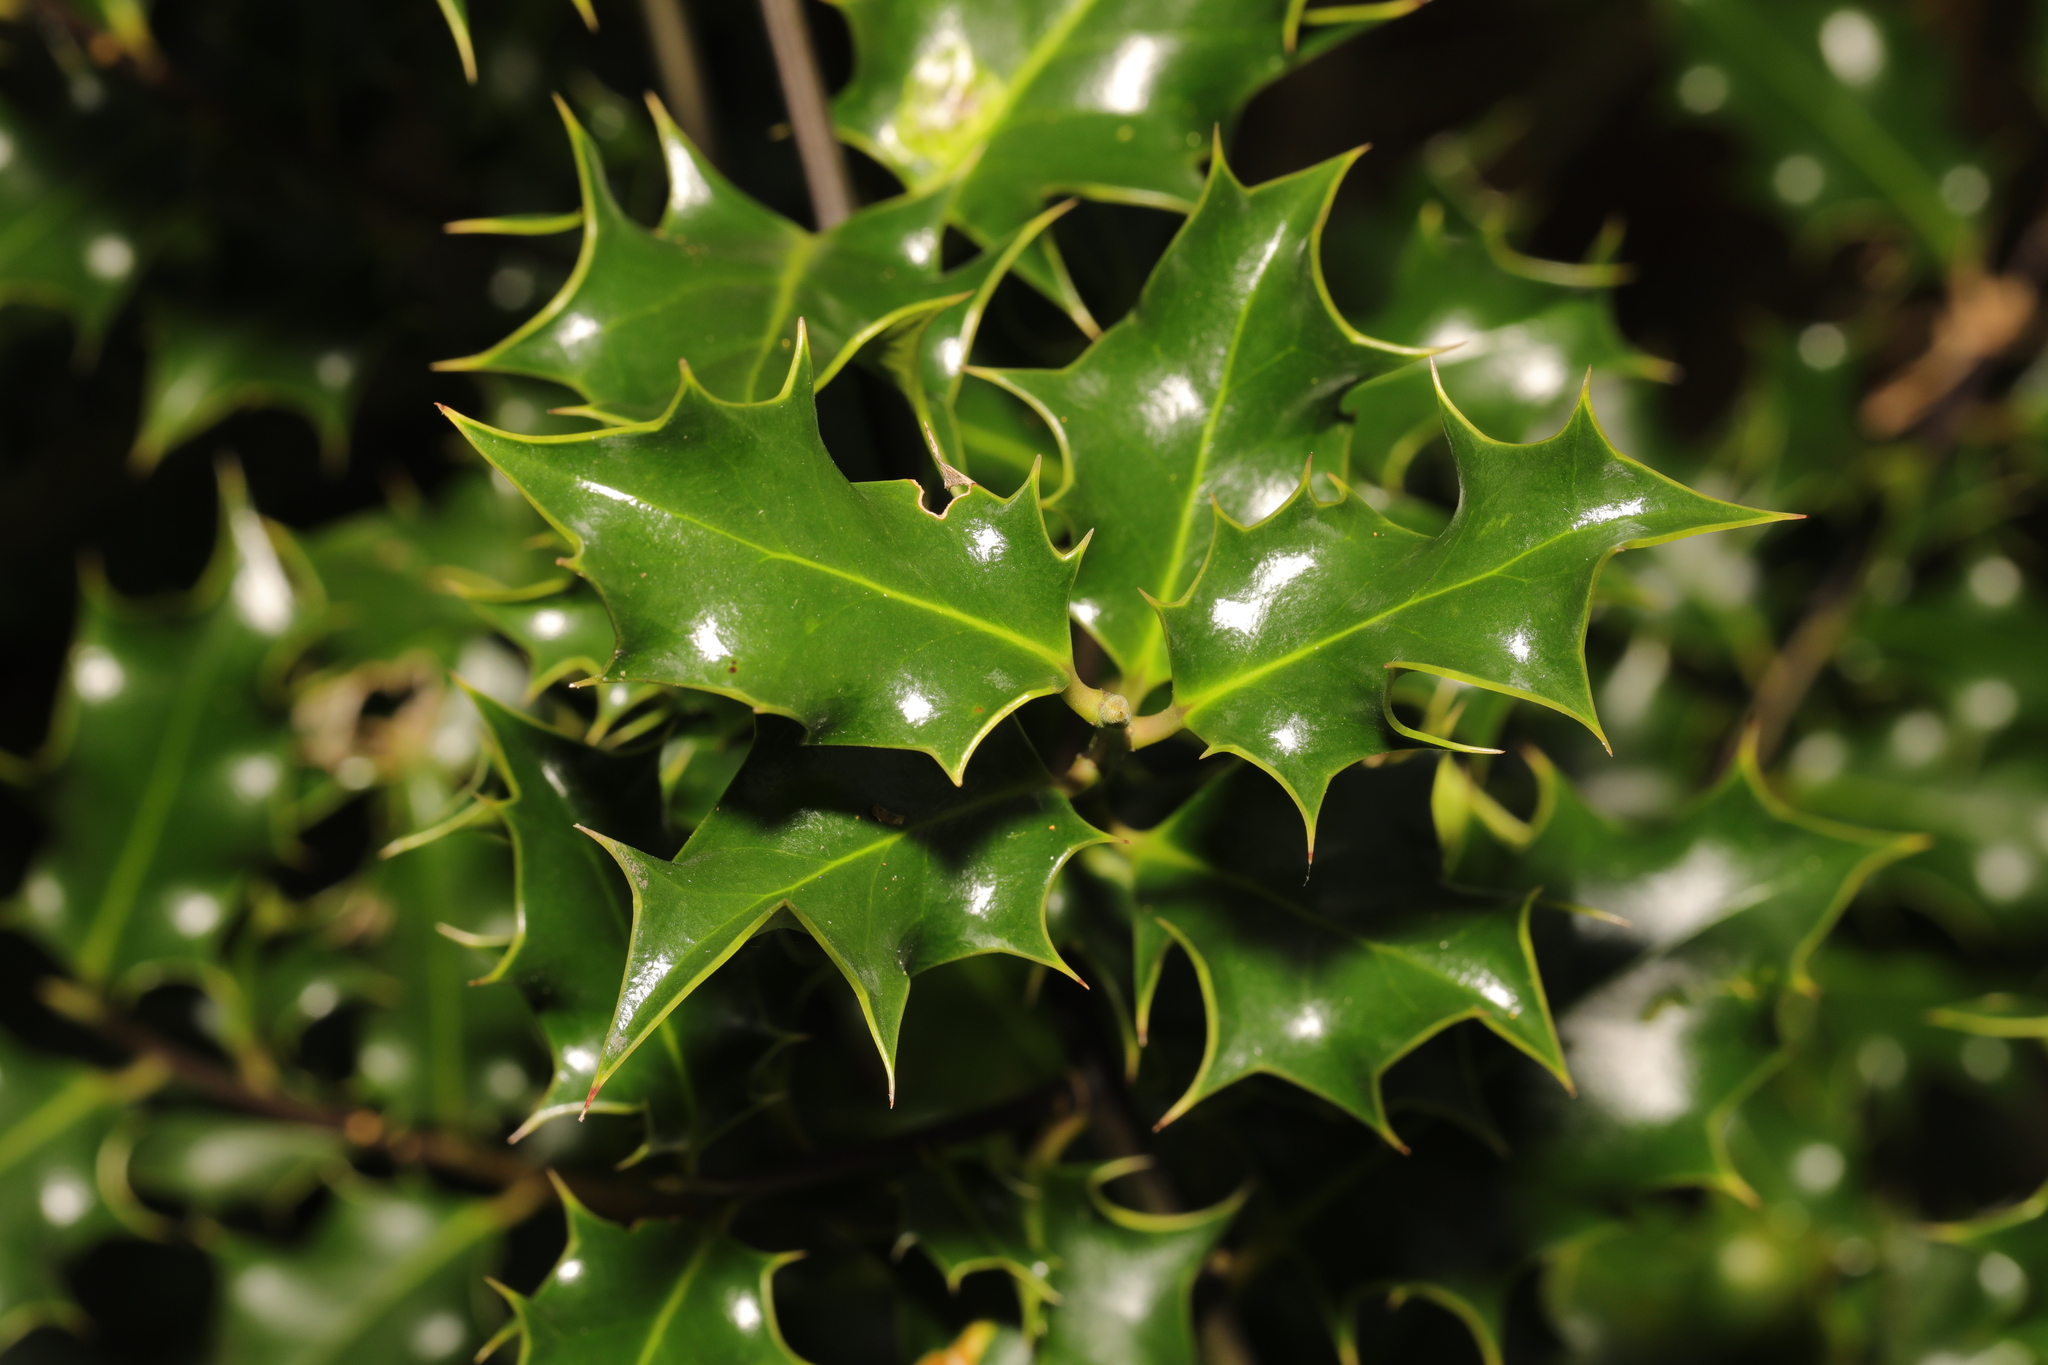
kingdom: Plantae
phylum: Tracheophyta
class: Magnoliopsida
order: Aquifoliales
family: Aquifoliaceae
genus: Ilex
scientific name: Ilex aquifolium
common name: English holly
